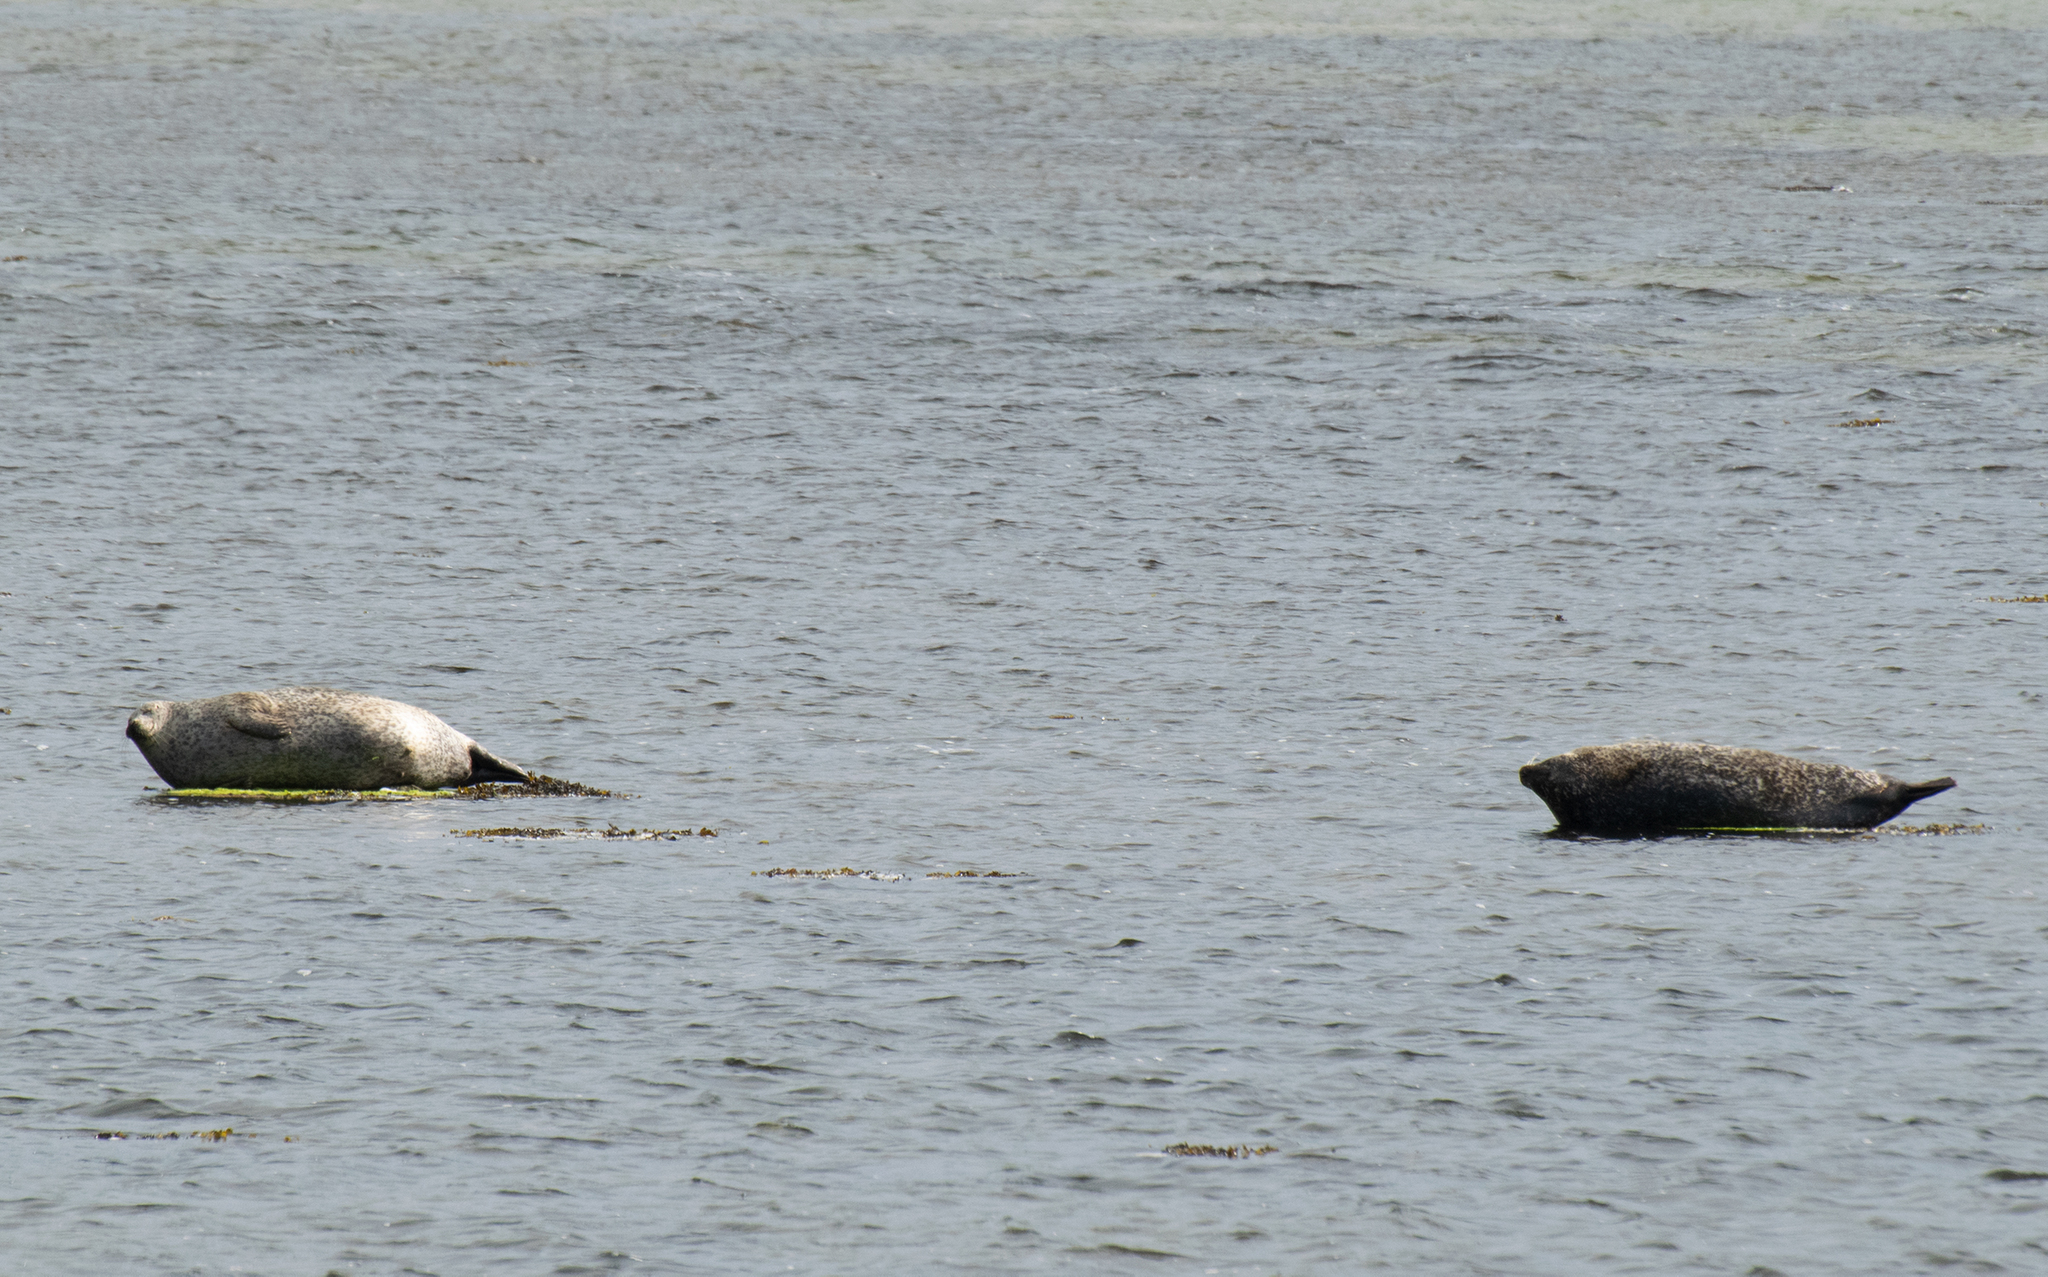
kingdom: Animalia
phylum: Chordata
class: Mammalia
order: Carnivora
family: Phocidae
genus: Phoca
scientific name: Phoca vitulina
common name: Harbor seal
